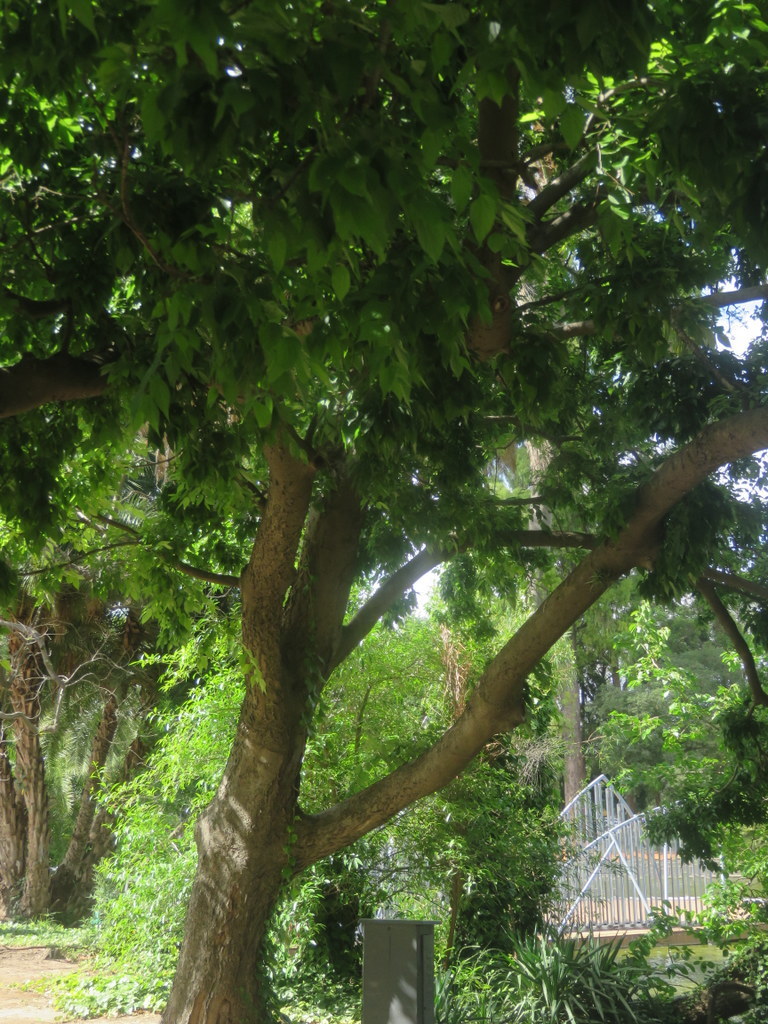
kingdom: Plantae
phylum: Tracheophyta
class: Magnoliopsida
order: Rosales
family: Cannabaceae
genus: Celtis
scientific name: Celtis australis
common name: European hackberry
